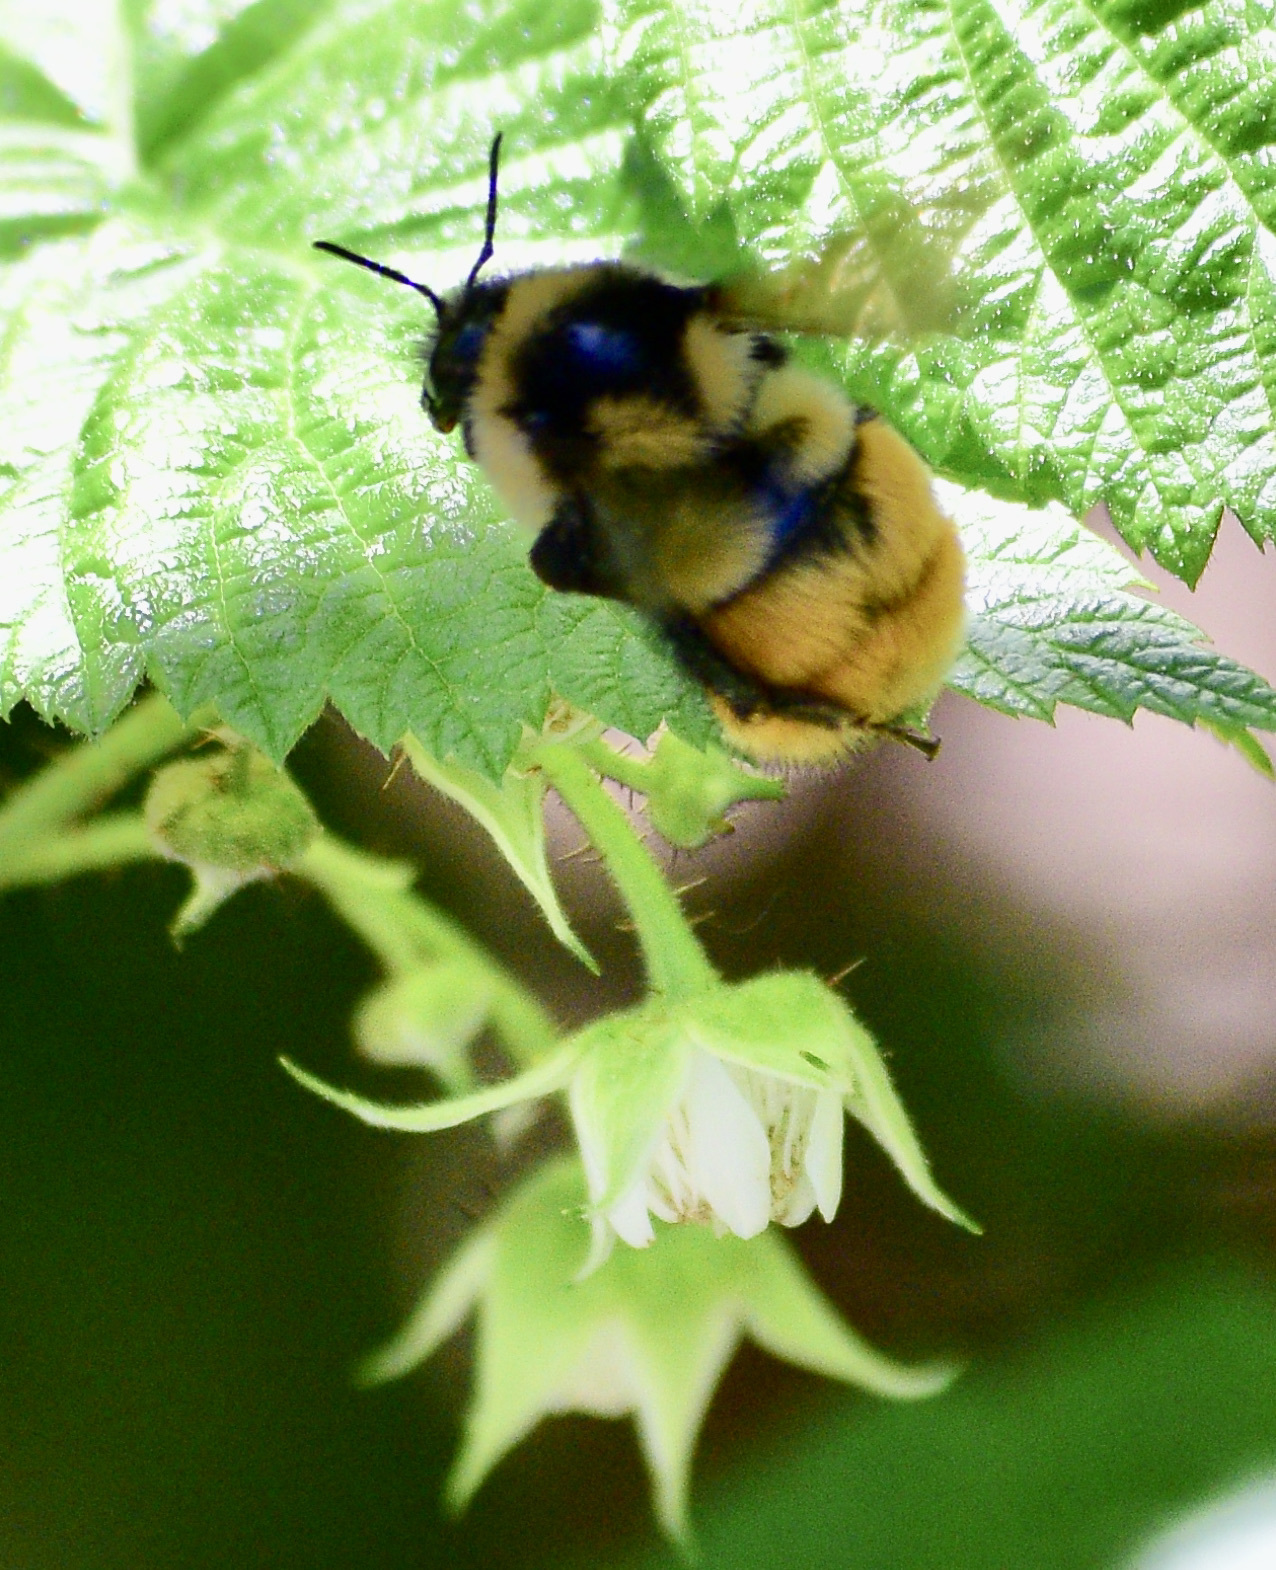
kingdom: Animalia
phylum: Arthropoda
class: Insecta
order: Hymenoptera
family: Apidae
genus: Bombus
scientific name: Bombus ternarius
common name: Tri-colored bumble bee
